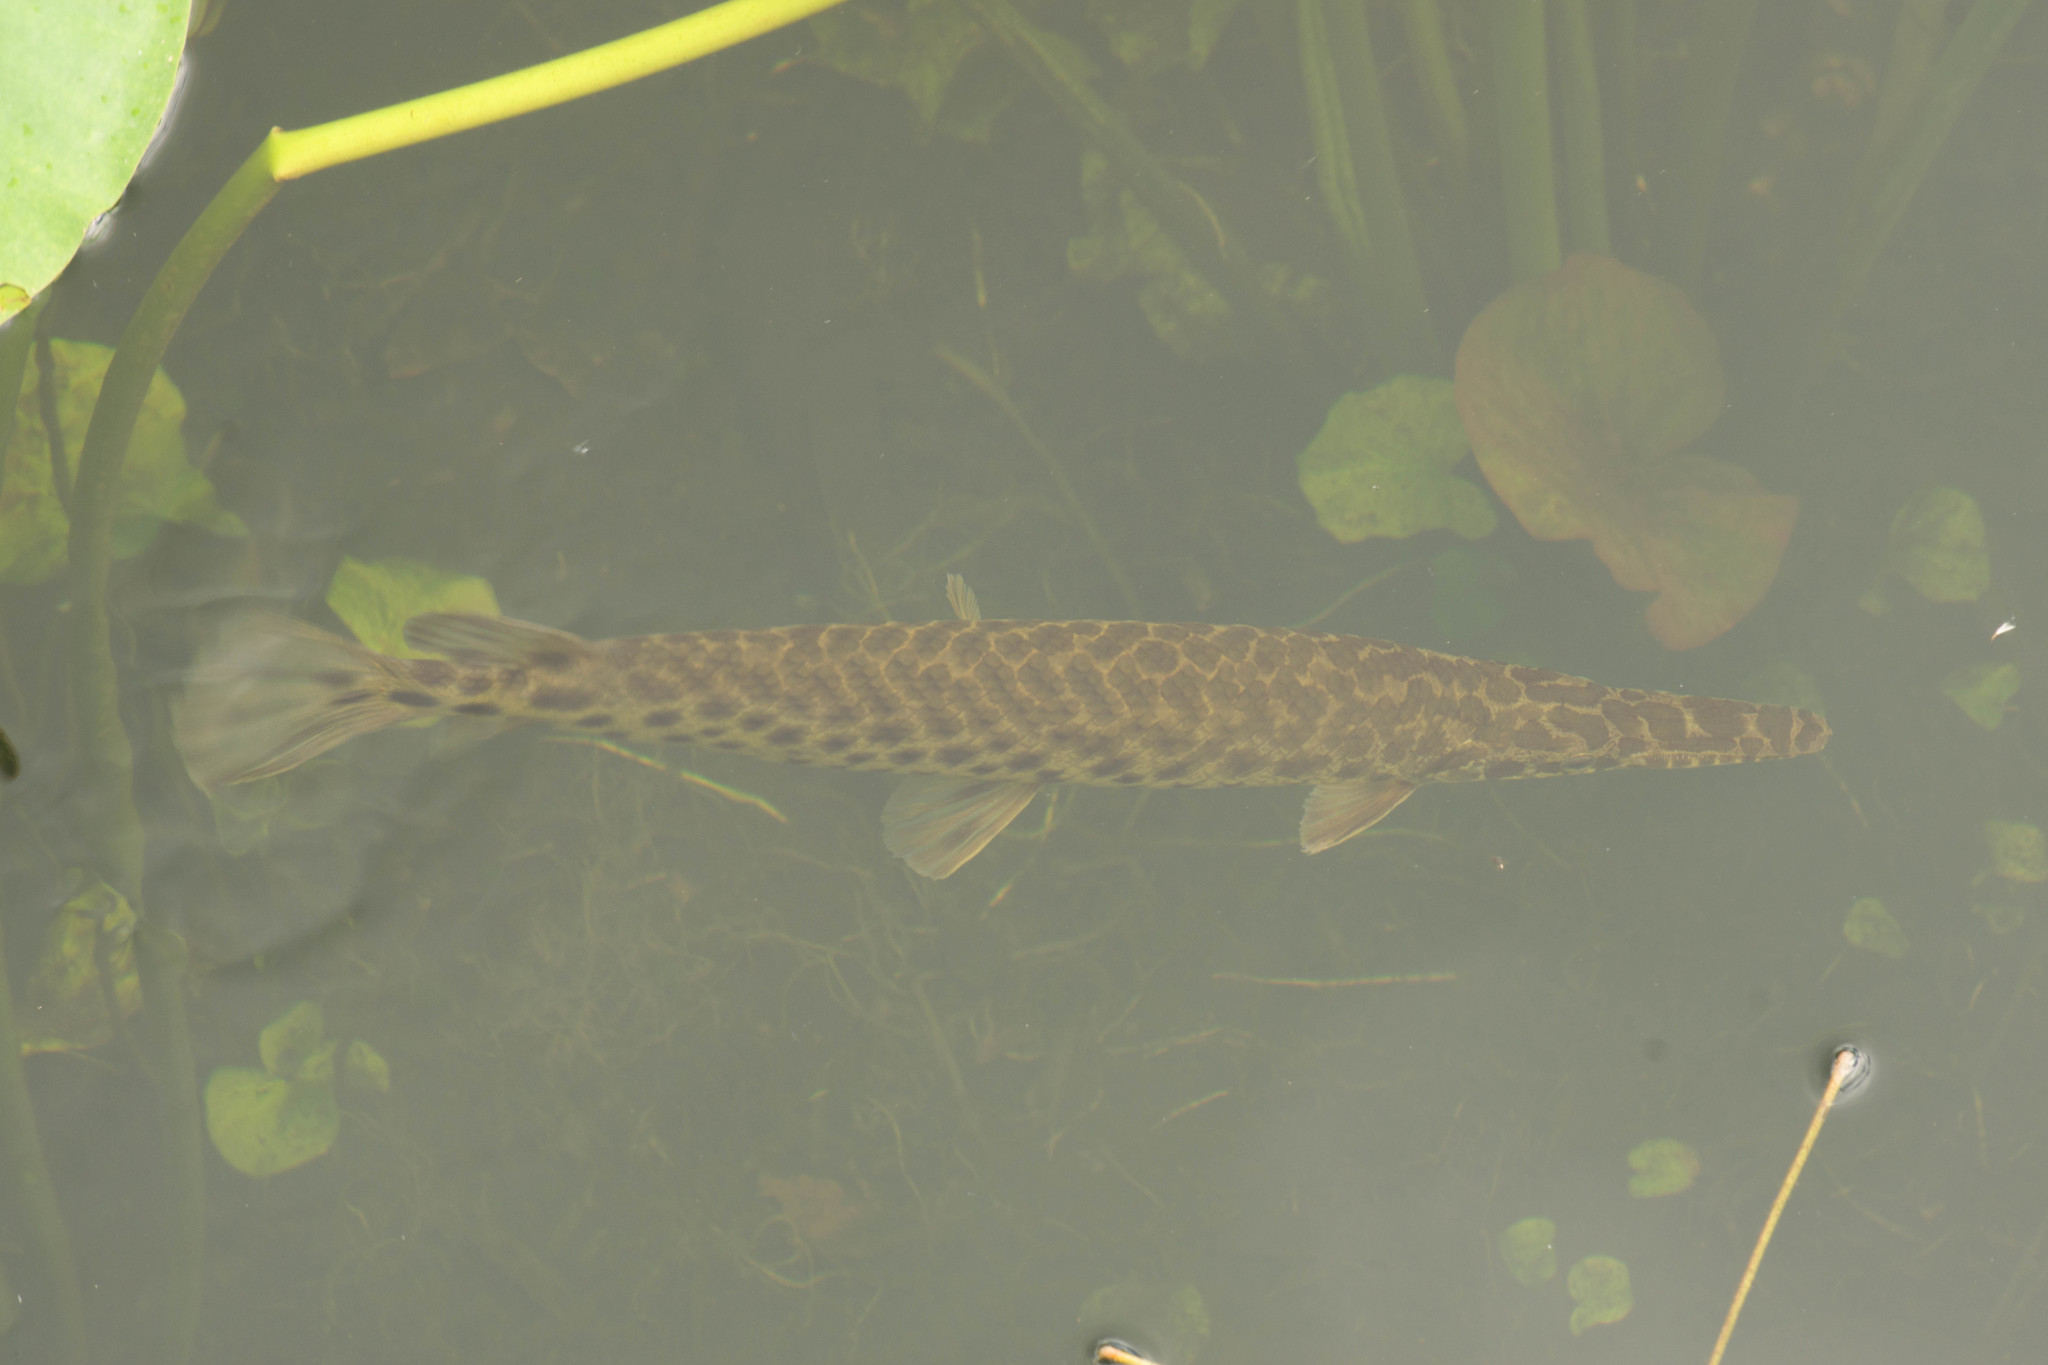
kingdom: Animalia
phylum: Chordata
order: Lepisosteiformes
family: Lepisosteidae
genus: Lepisosteus
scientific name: Lepisosteus platyrhincus
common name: Florida gar
